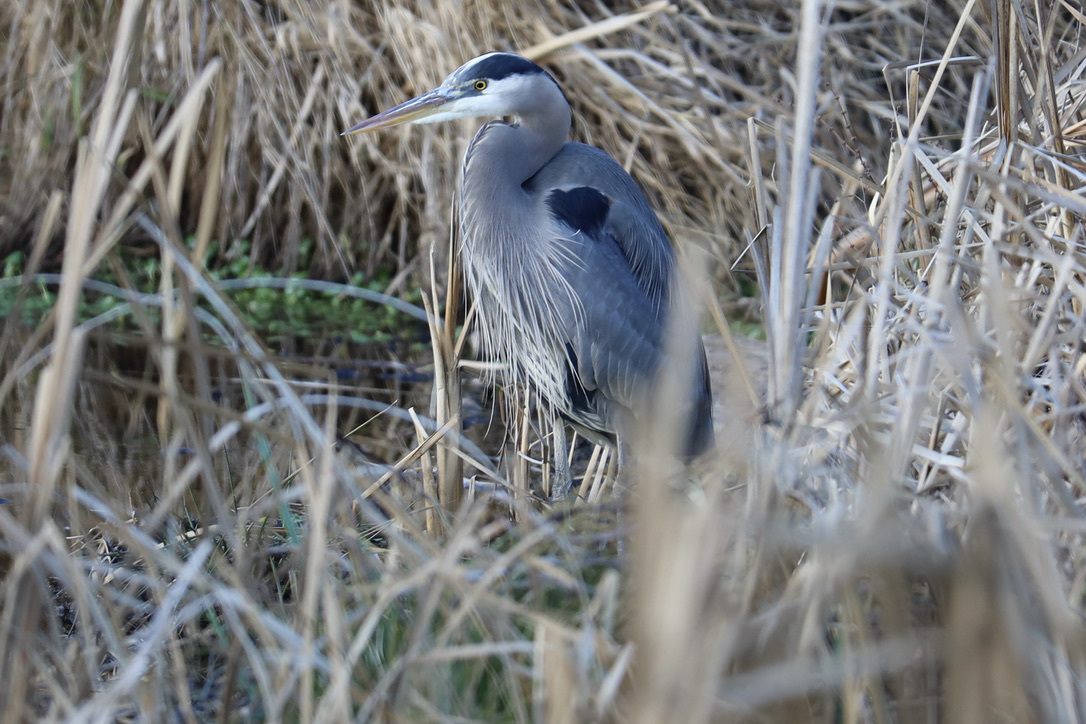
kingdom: Animalia
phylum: Chordata
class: Aves
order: Pelecaniformes
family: Ardeidae
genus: Ardea
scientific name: Ardea herodias
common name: Great blue heron
